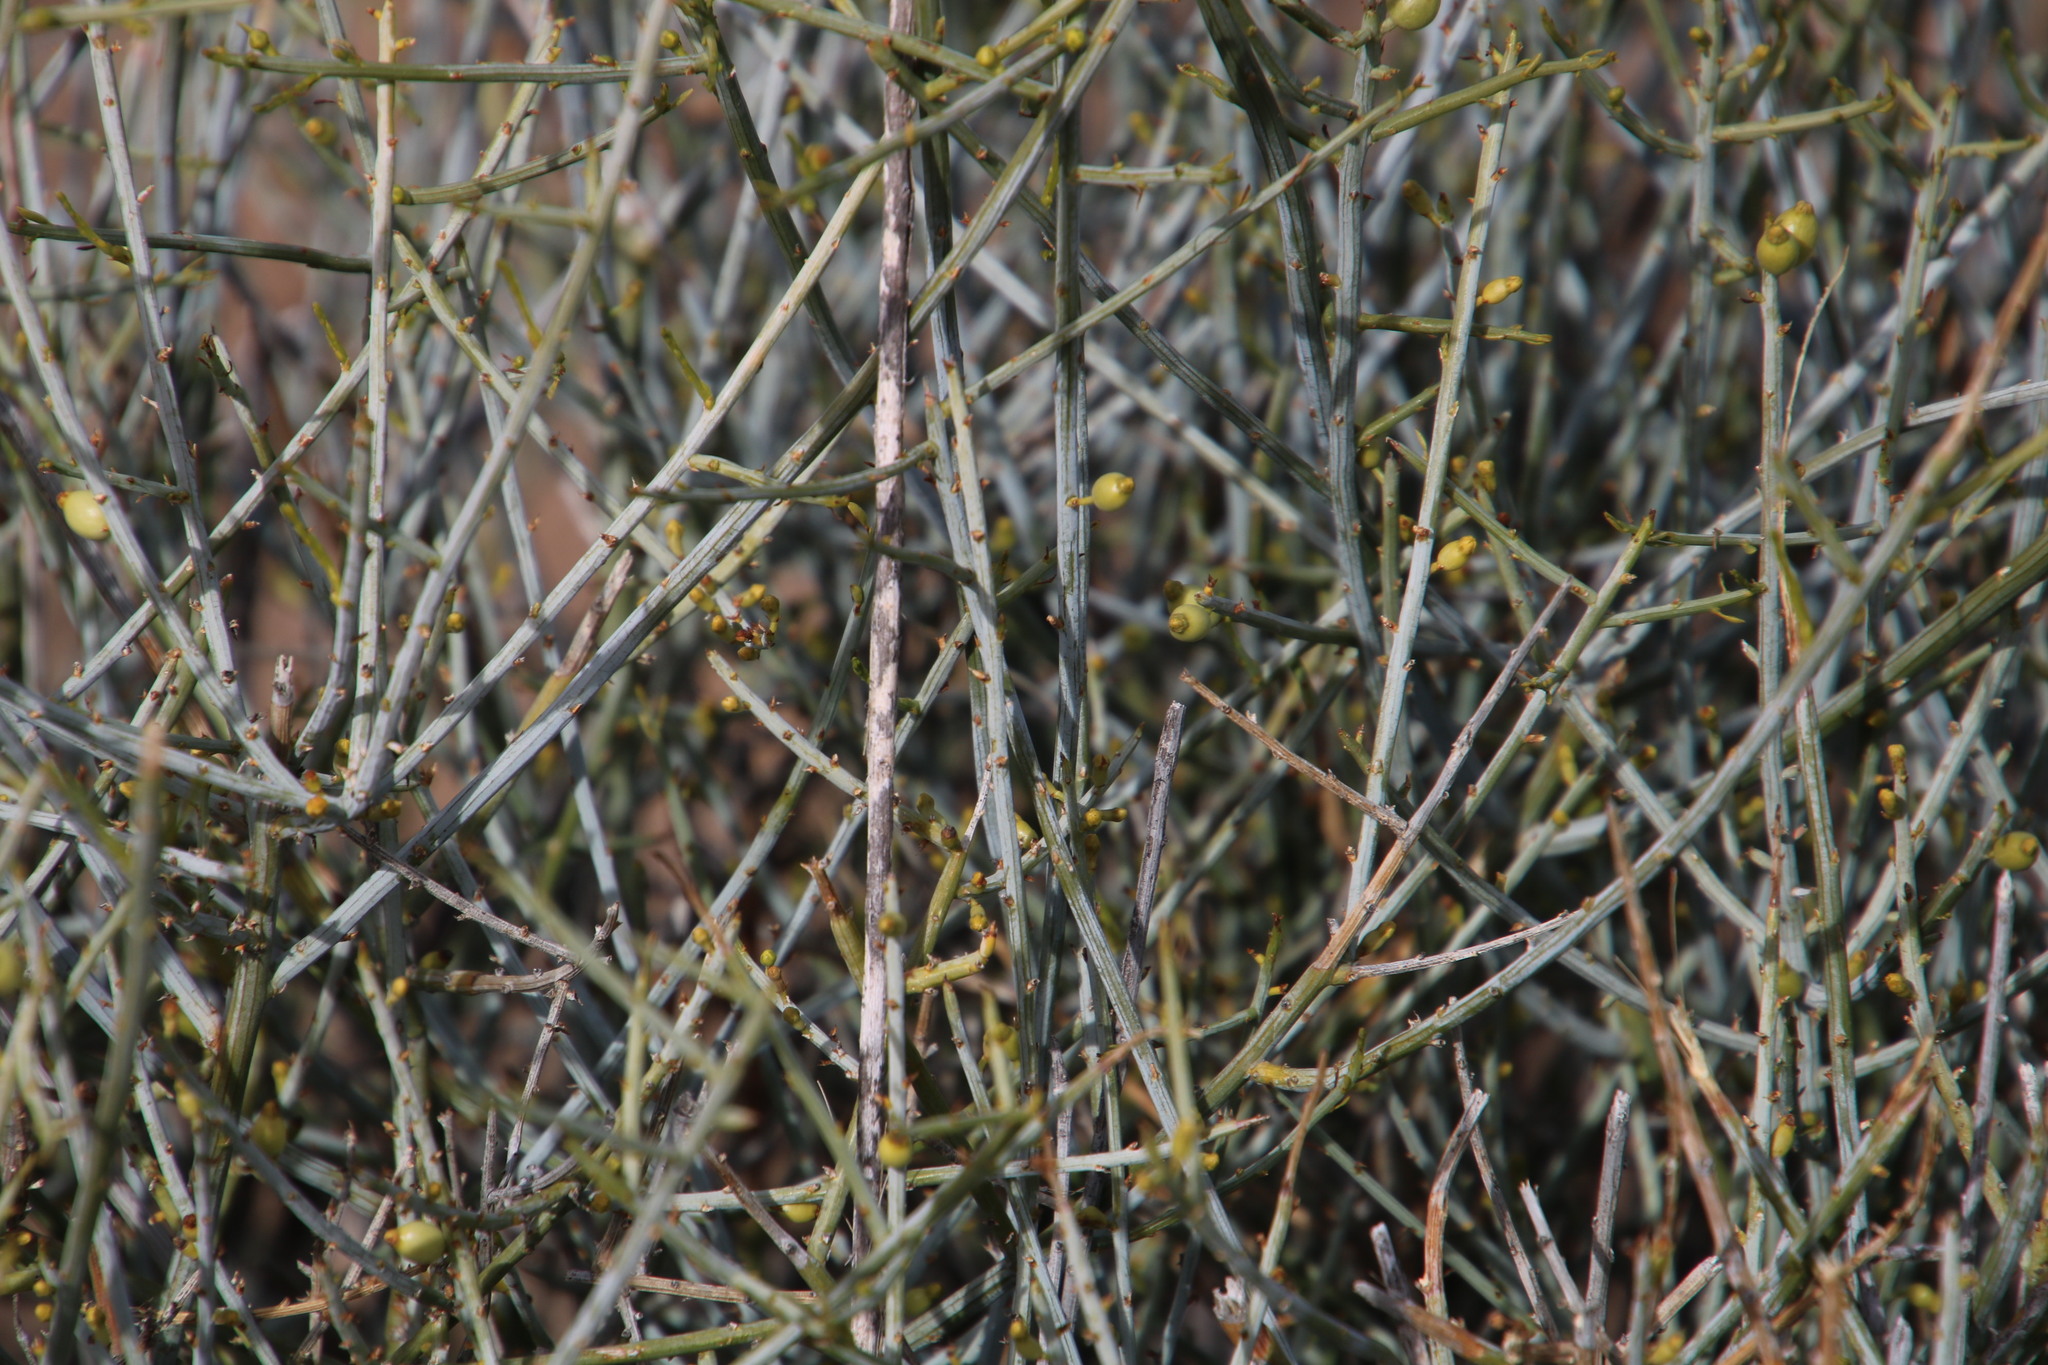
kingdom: Plantae
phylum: Tracheophyta
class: Magnoliopsida
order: Santalales
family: Thesiaceae
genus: Lacomucinaea
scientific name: Lacomucinaea lineata
